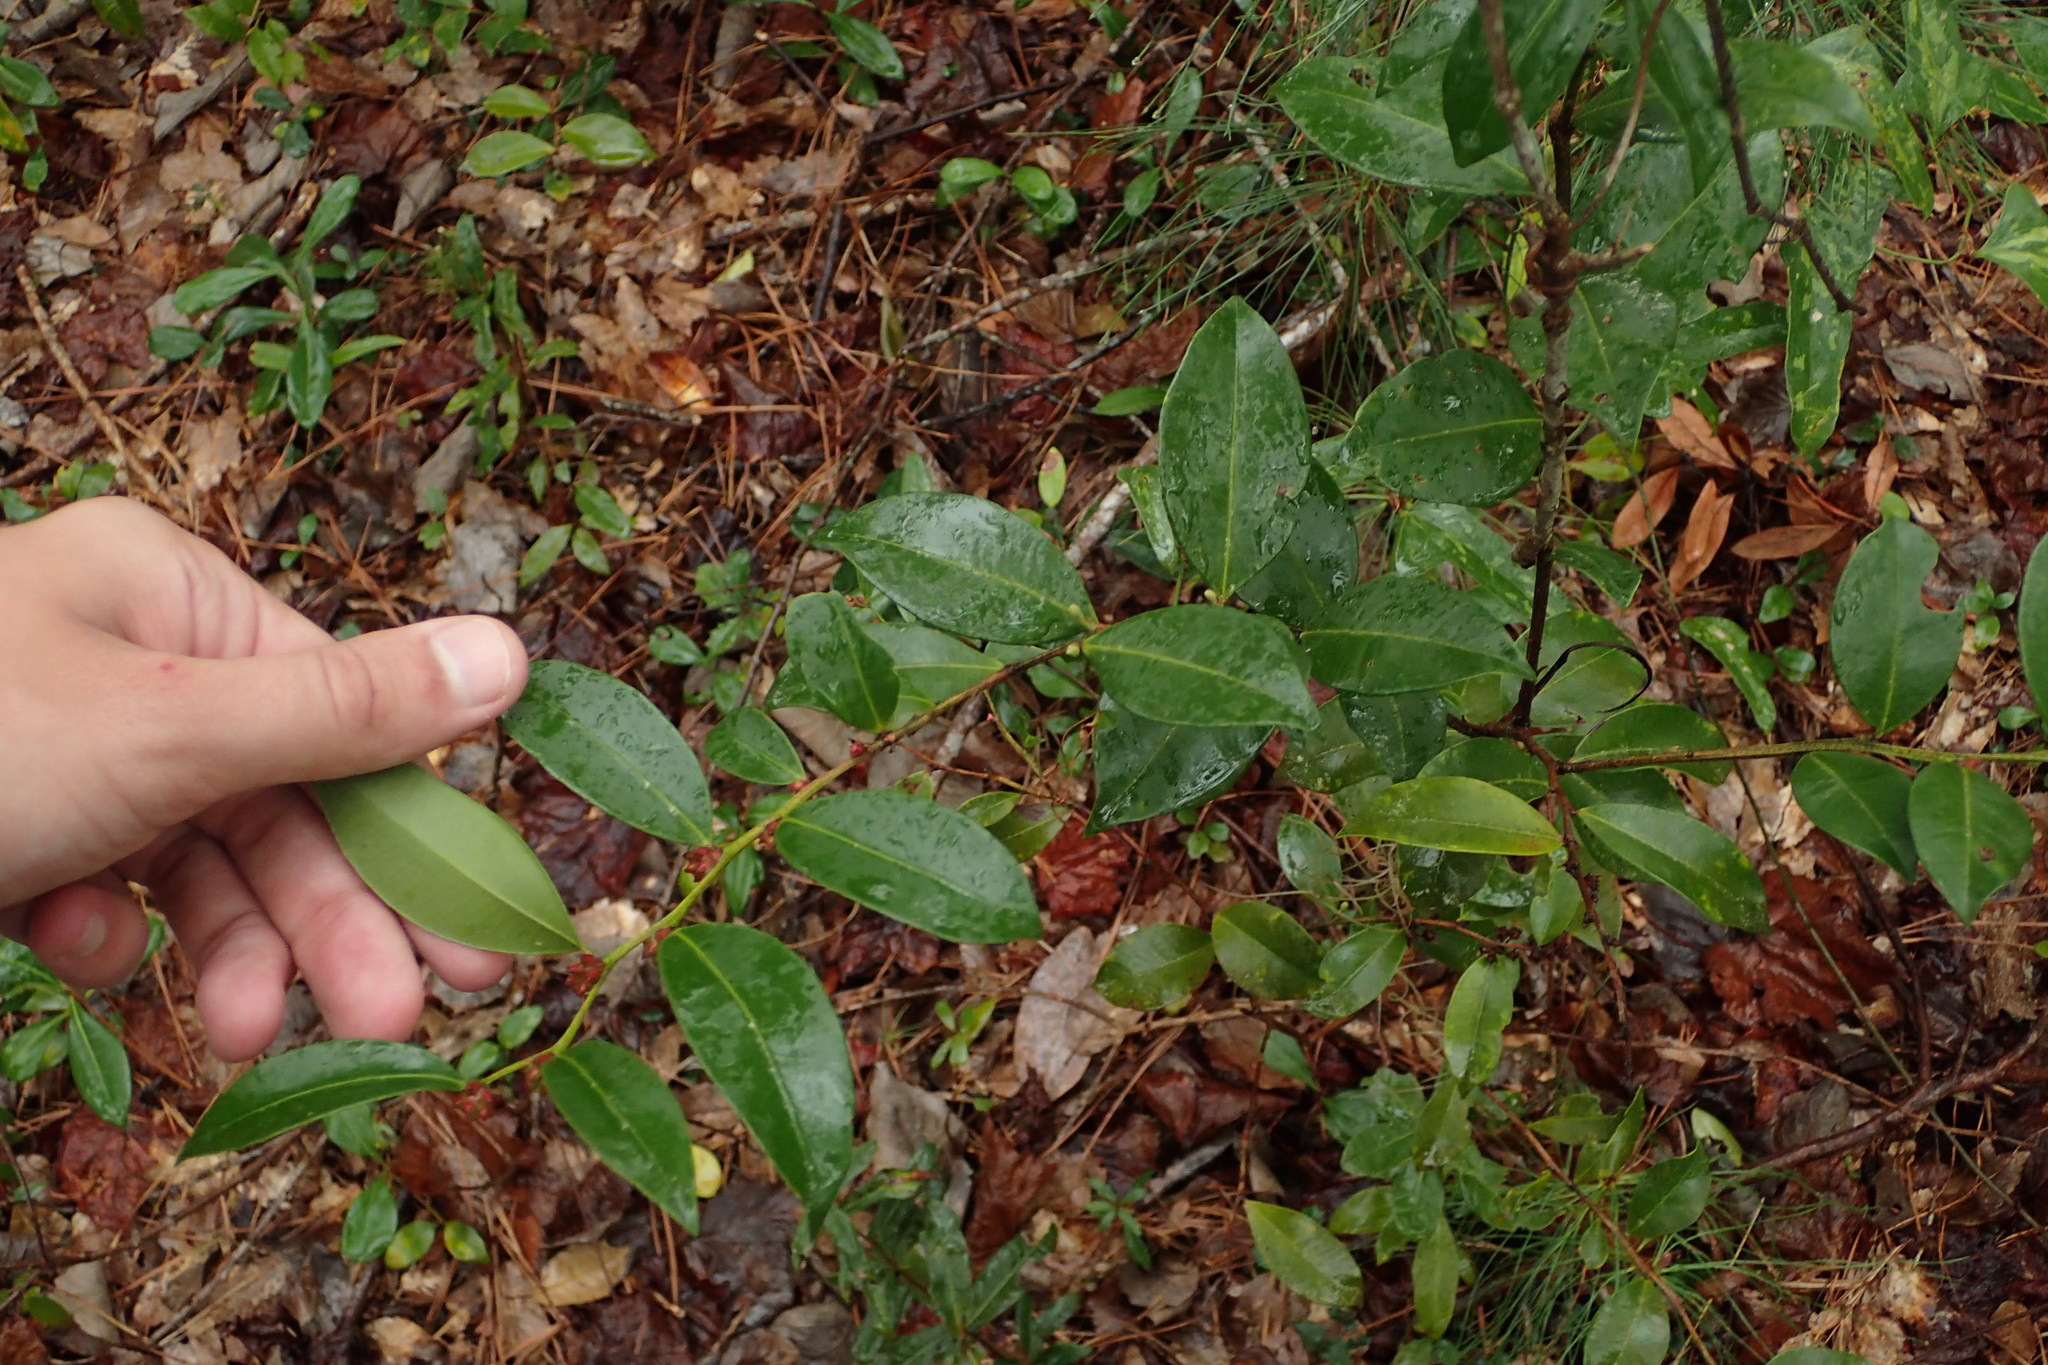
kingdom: Plantae
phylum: Tracheophyta
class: Magnoliopsida
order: Ericales
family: Ericaceae
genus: Lyonia
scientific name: Lyonia lucida
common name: Fetterbush
